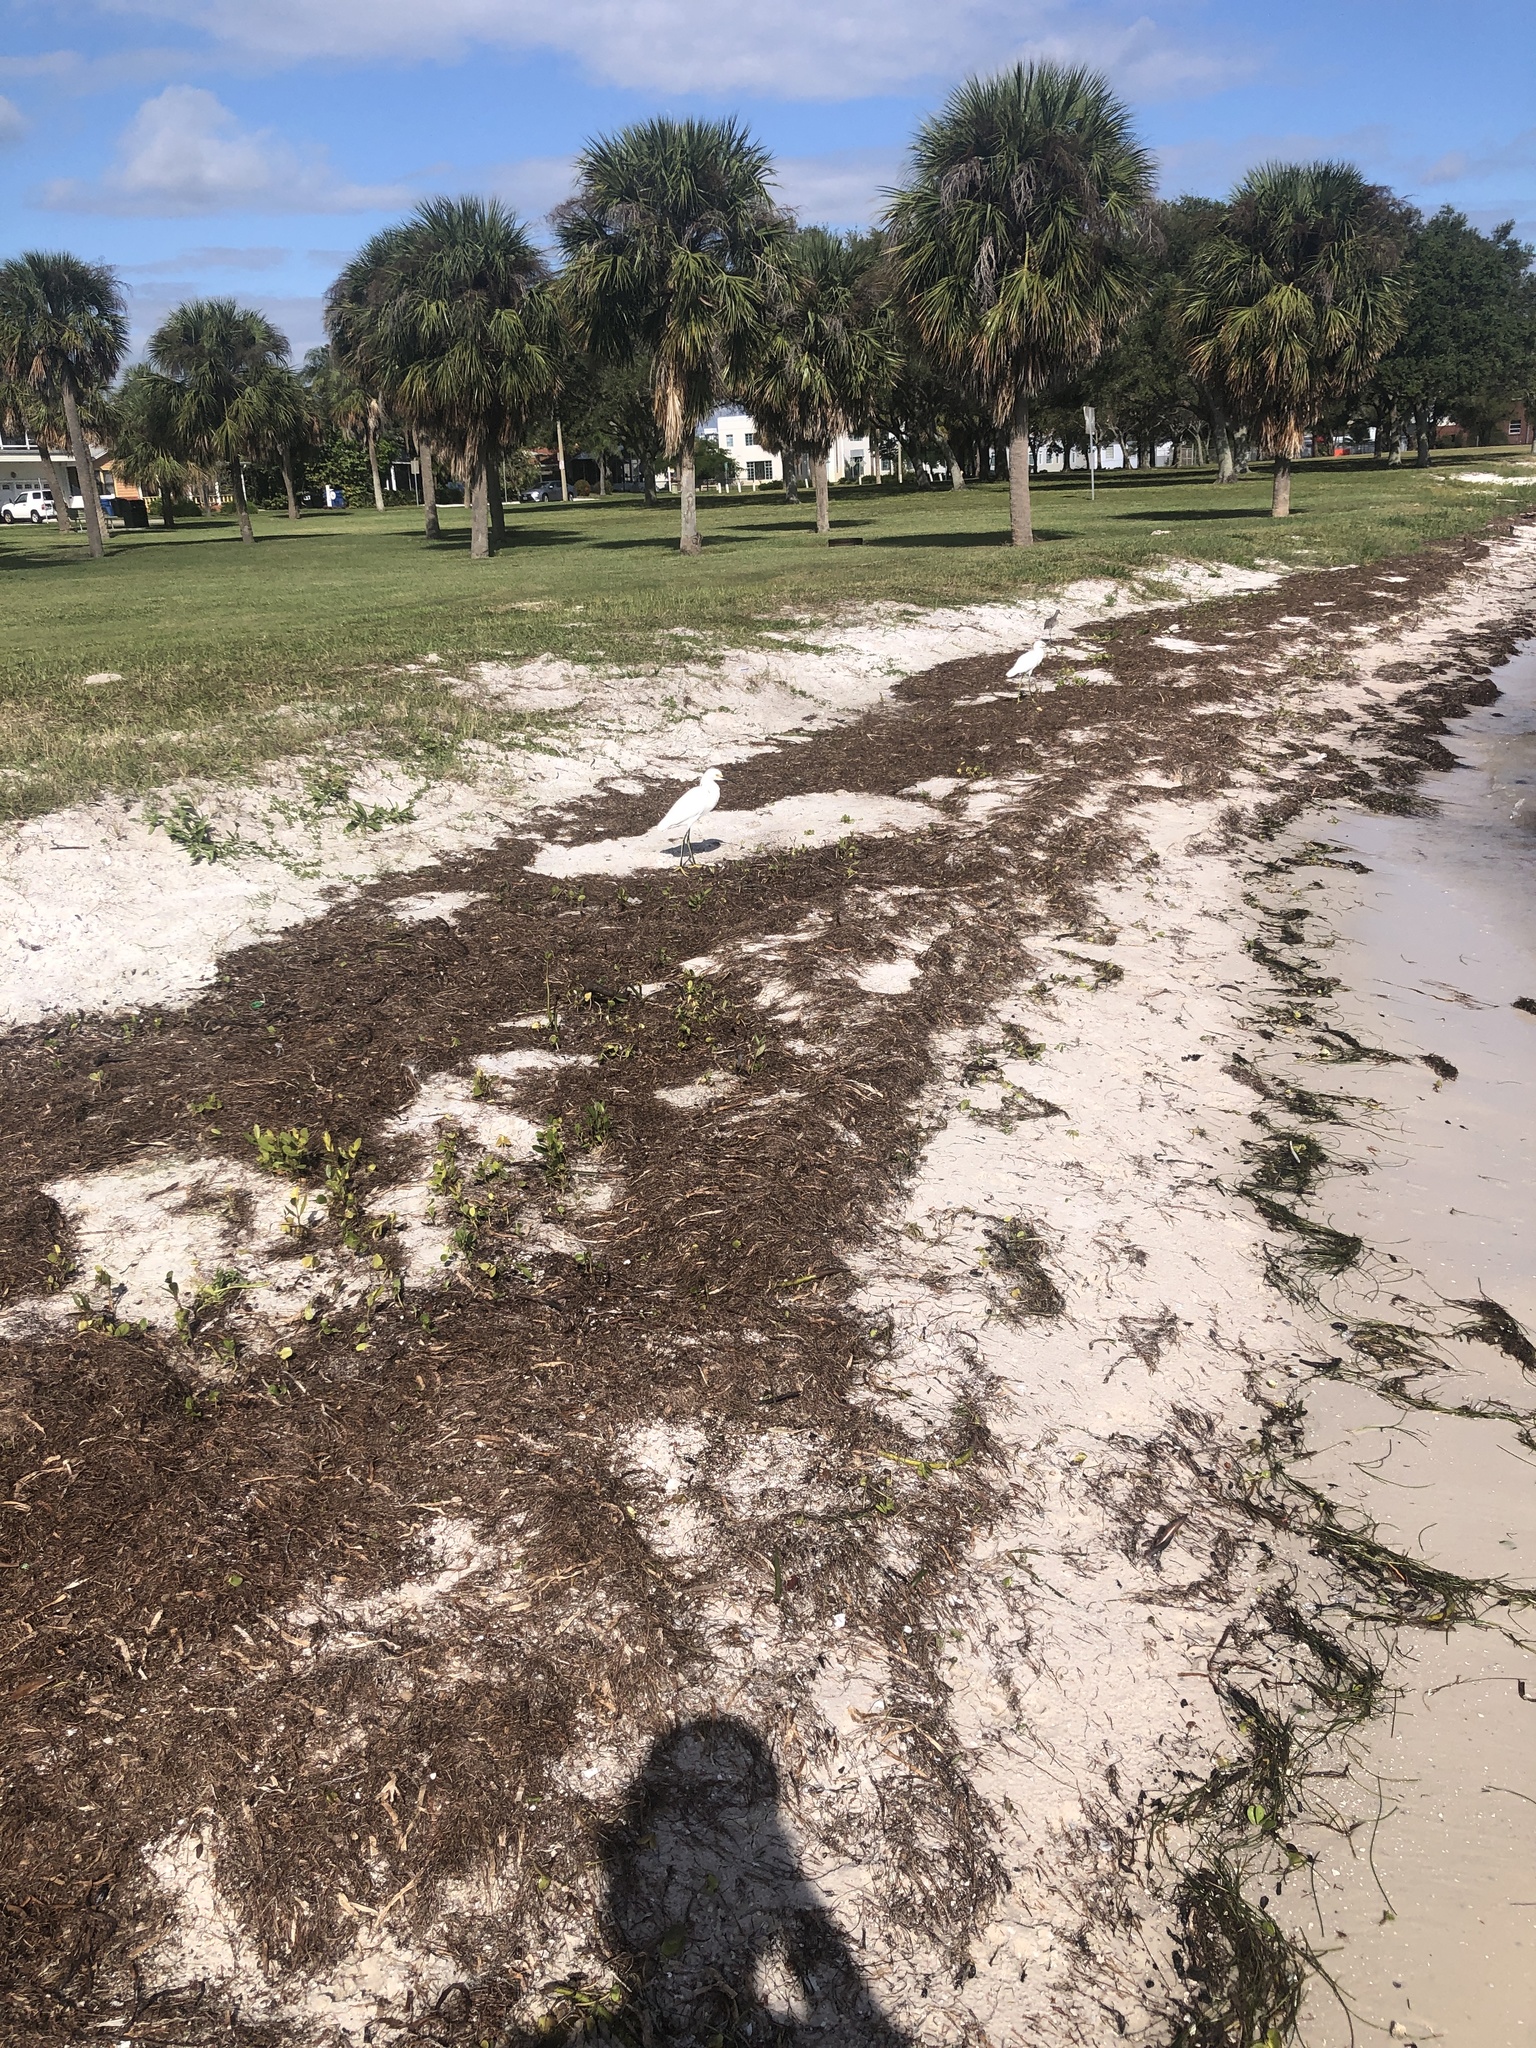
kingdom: Animalia
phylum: Chordata
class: Aves
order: Pelecaniformes
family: Ardeidae
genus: Egretta
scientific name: Egretta thula
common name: Snowy egret
